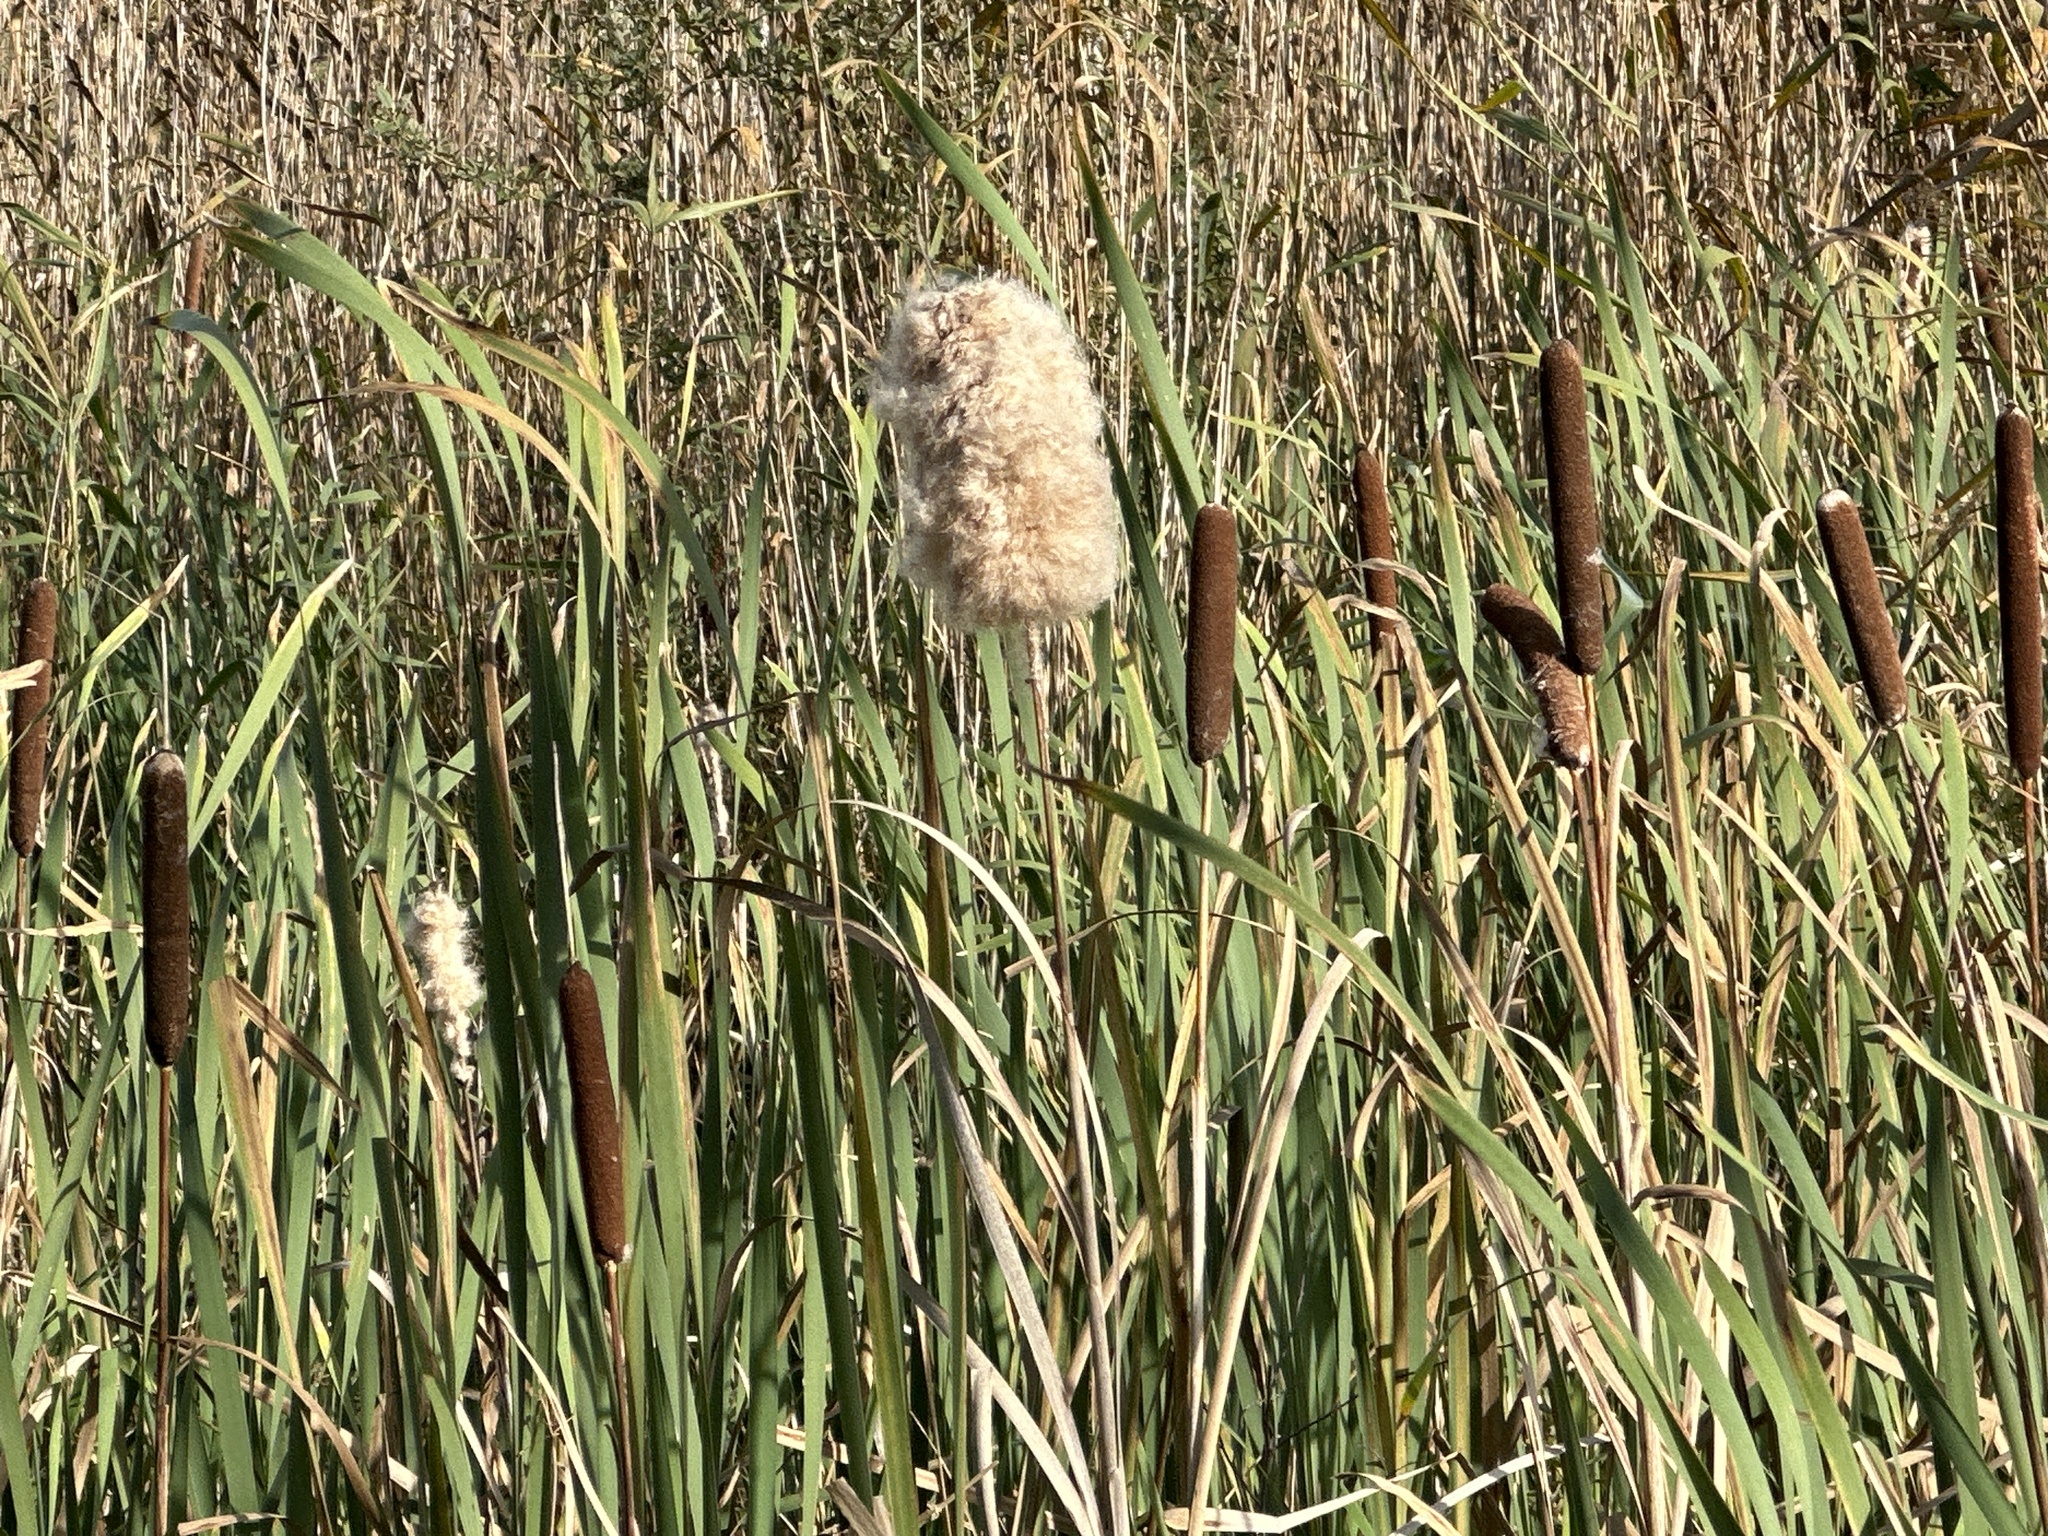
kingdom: Plantae
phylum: Tracheophyta
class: Liliopsida
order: Poales
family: Typhaceae
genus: Typha
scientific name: Typha latifolia
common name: Broadleaf cattail
